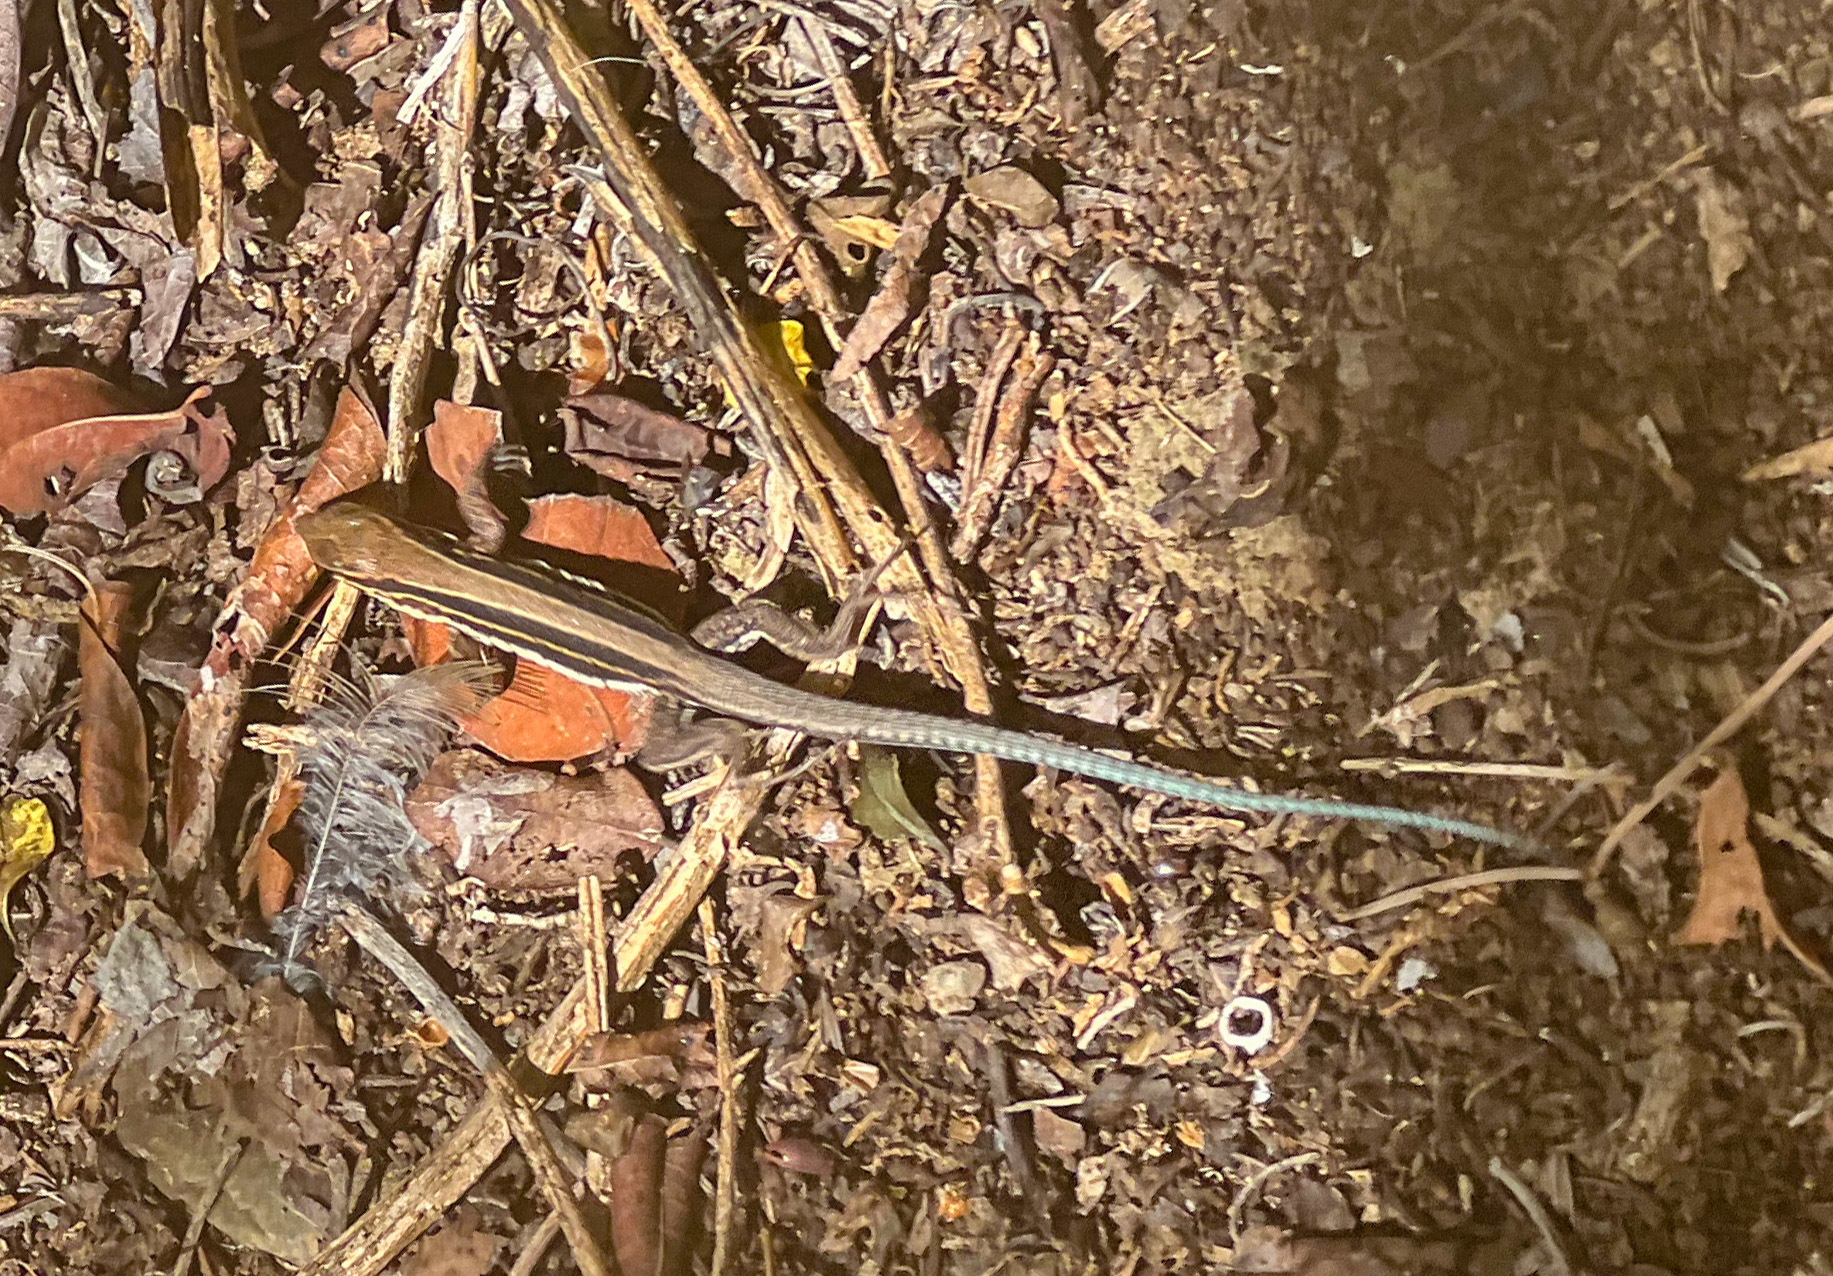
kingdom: Animalia
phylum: Chordata
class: Squamata
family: Teiidae
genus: Pholidoscelis
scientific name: Pholidoscelis polops
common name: St. croix ameiva
